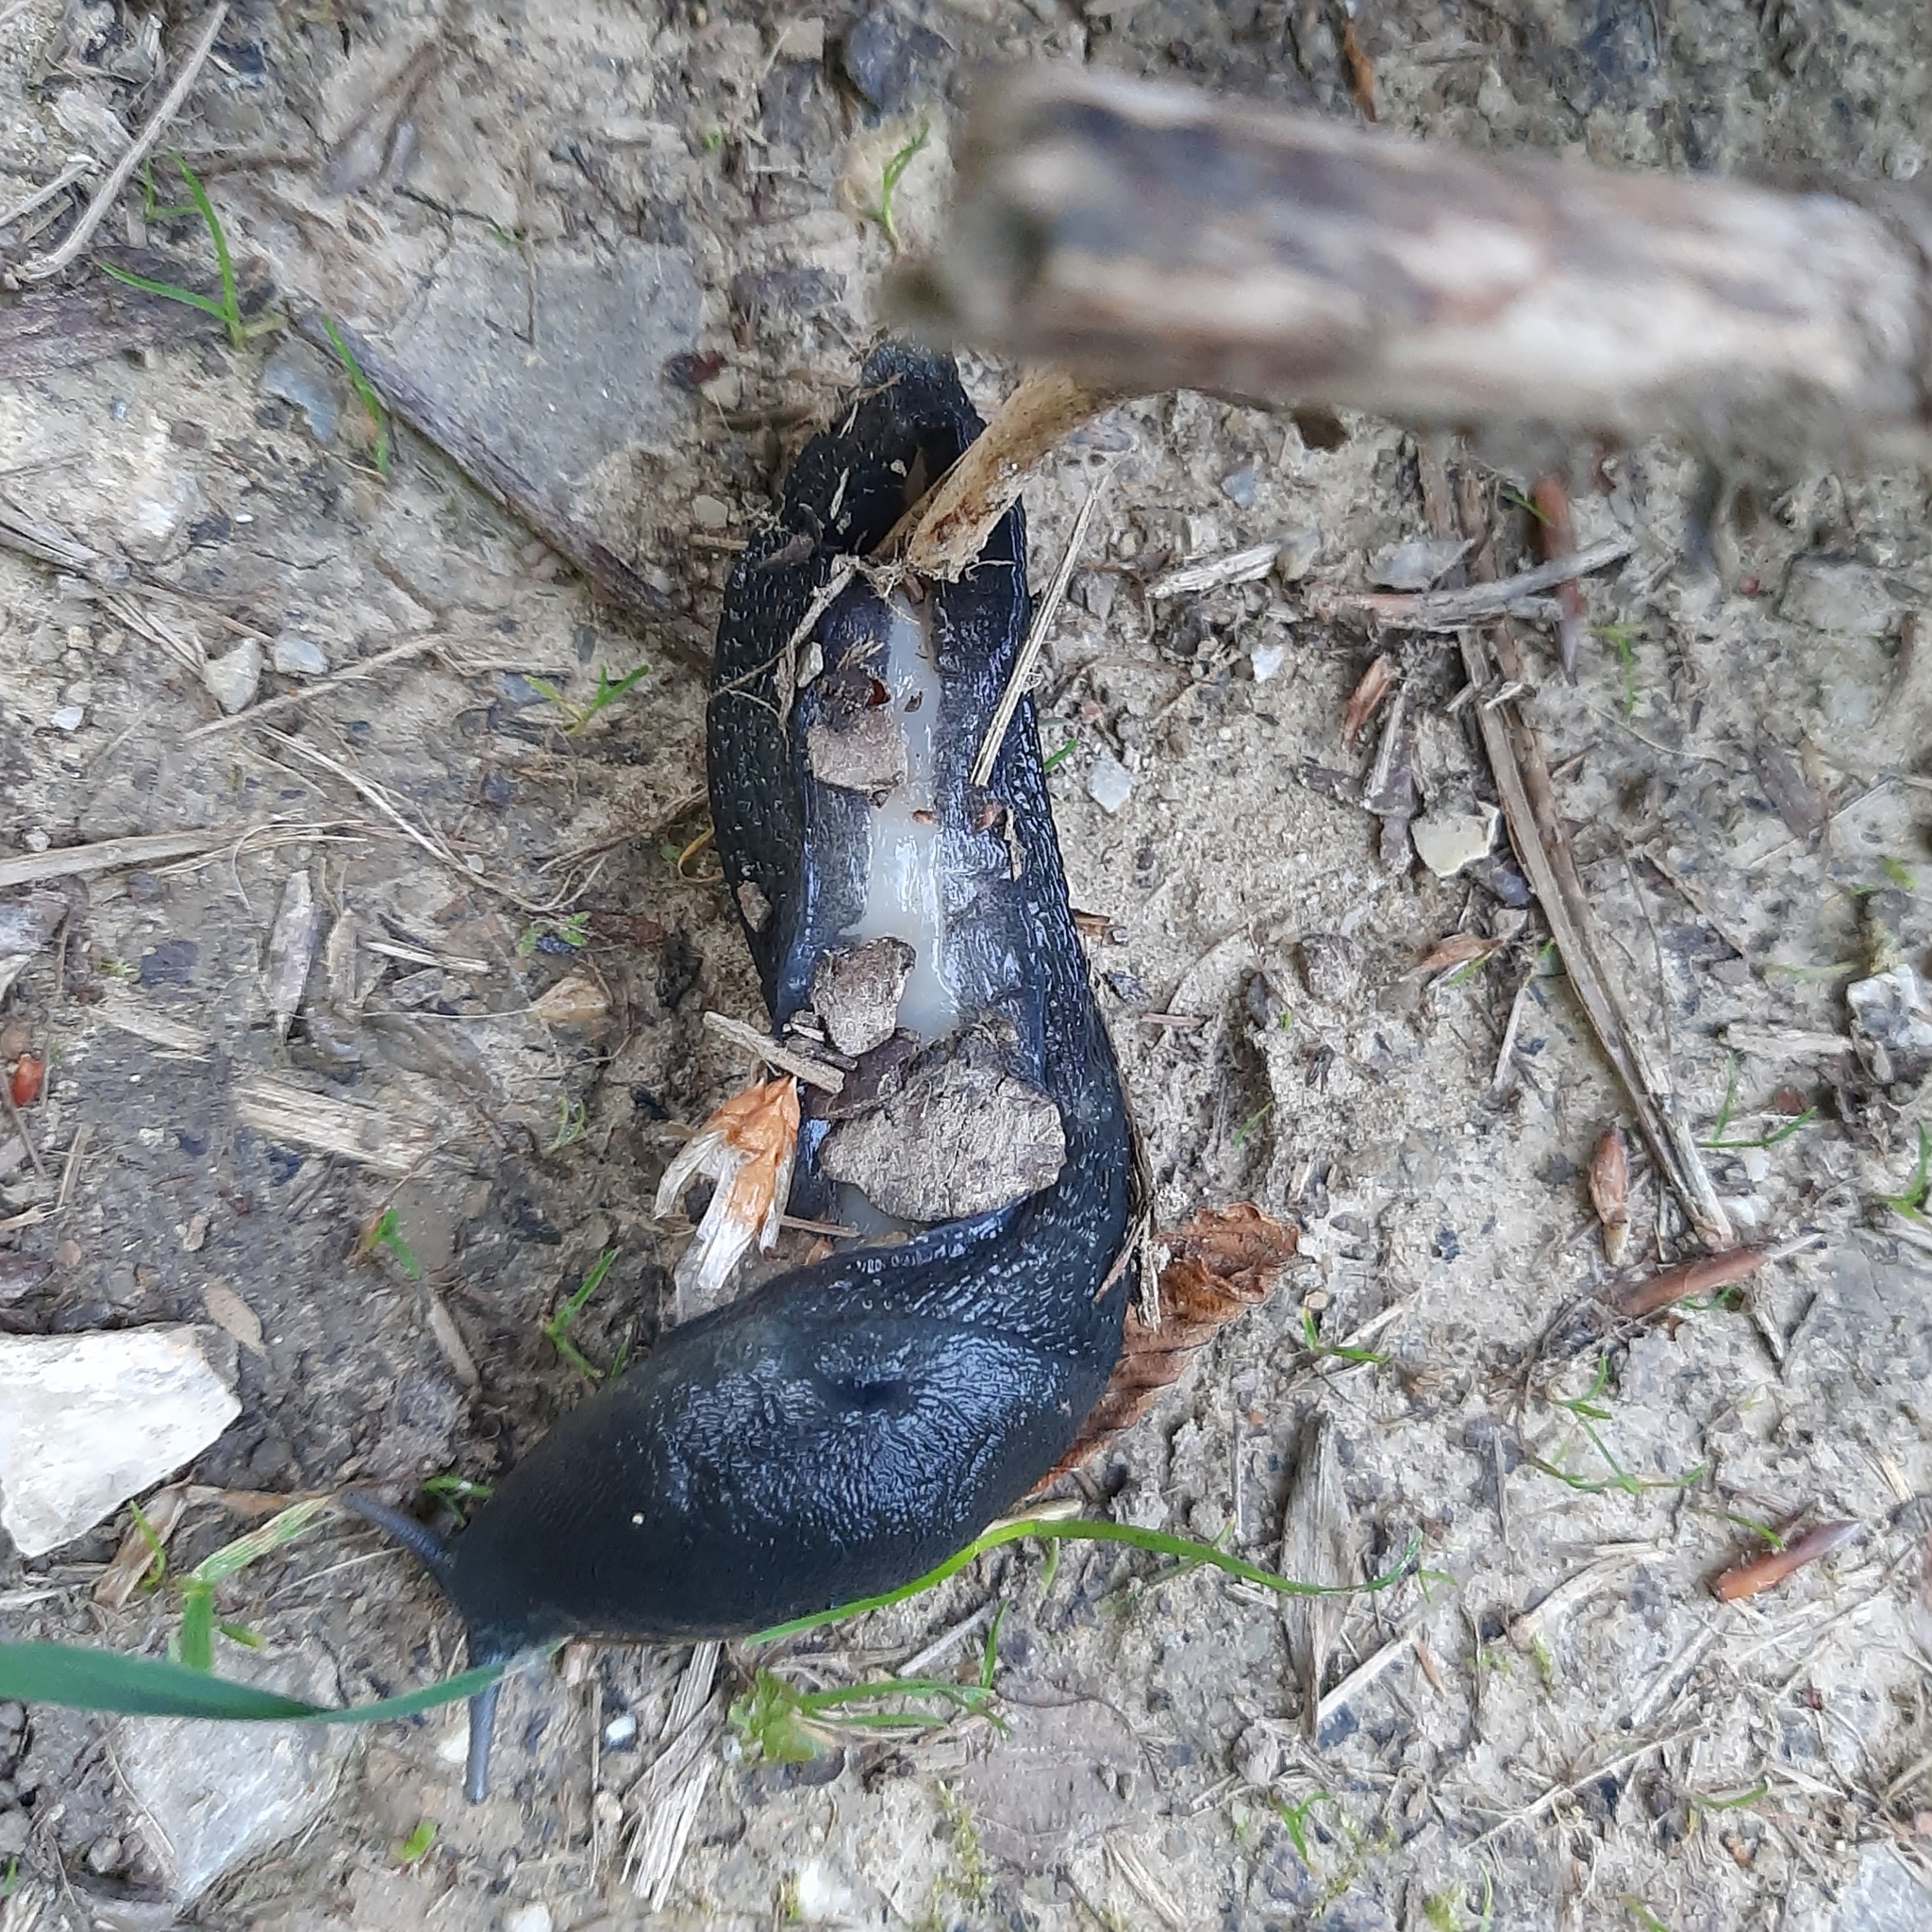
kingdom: Animalia
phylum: Mollusca
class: Gastropoda
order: Stylommatophora
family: Limacidae
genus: Limax
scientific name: Limax cinereoniger
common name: Ash-black slug
